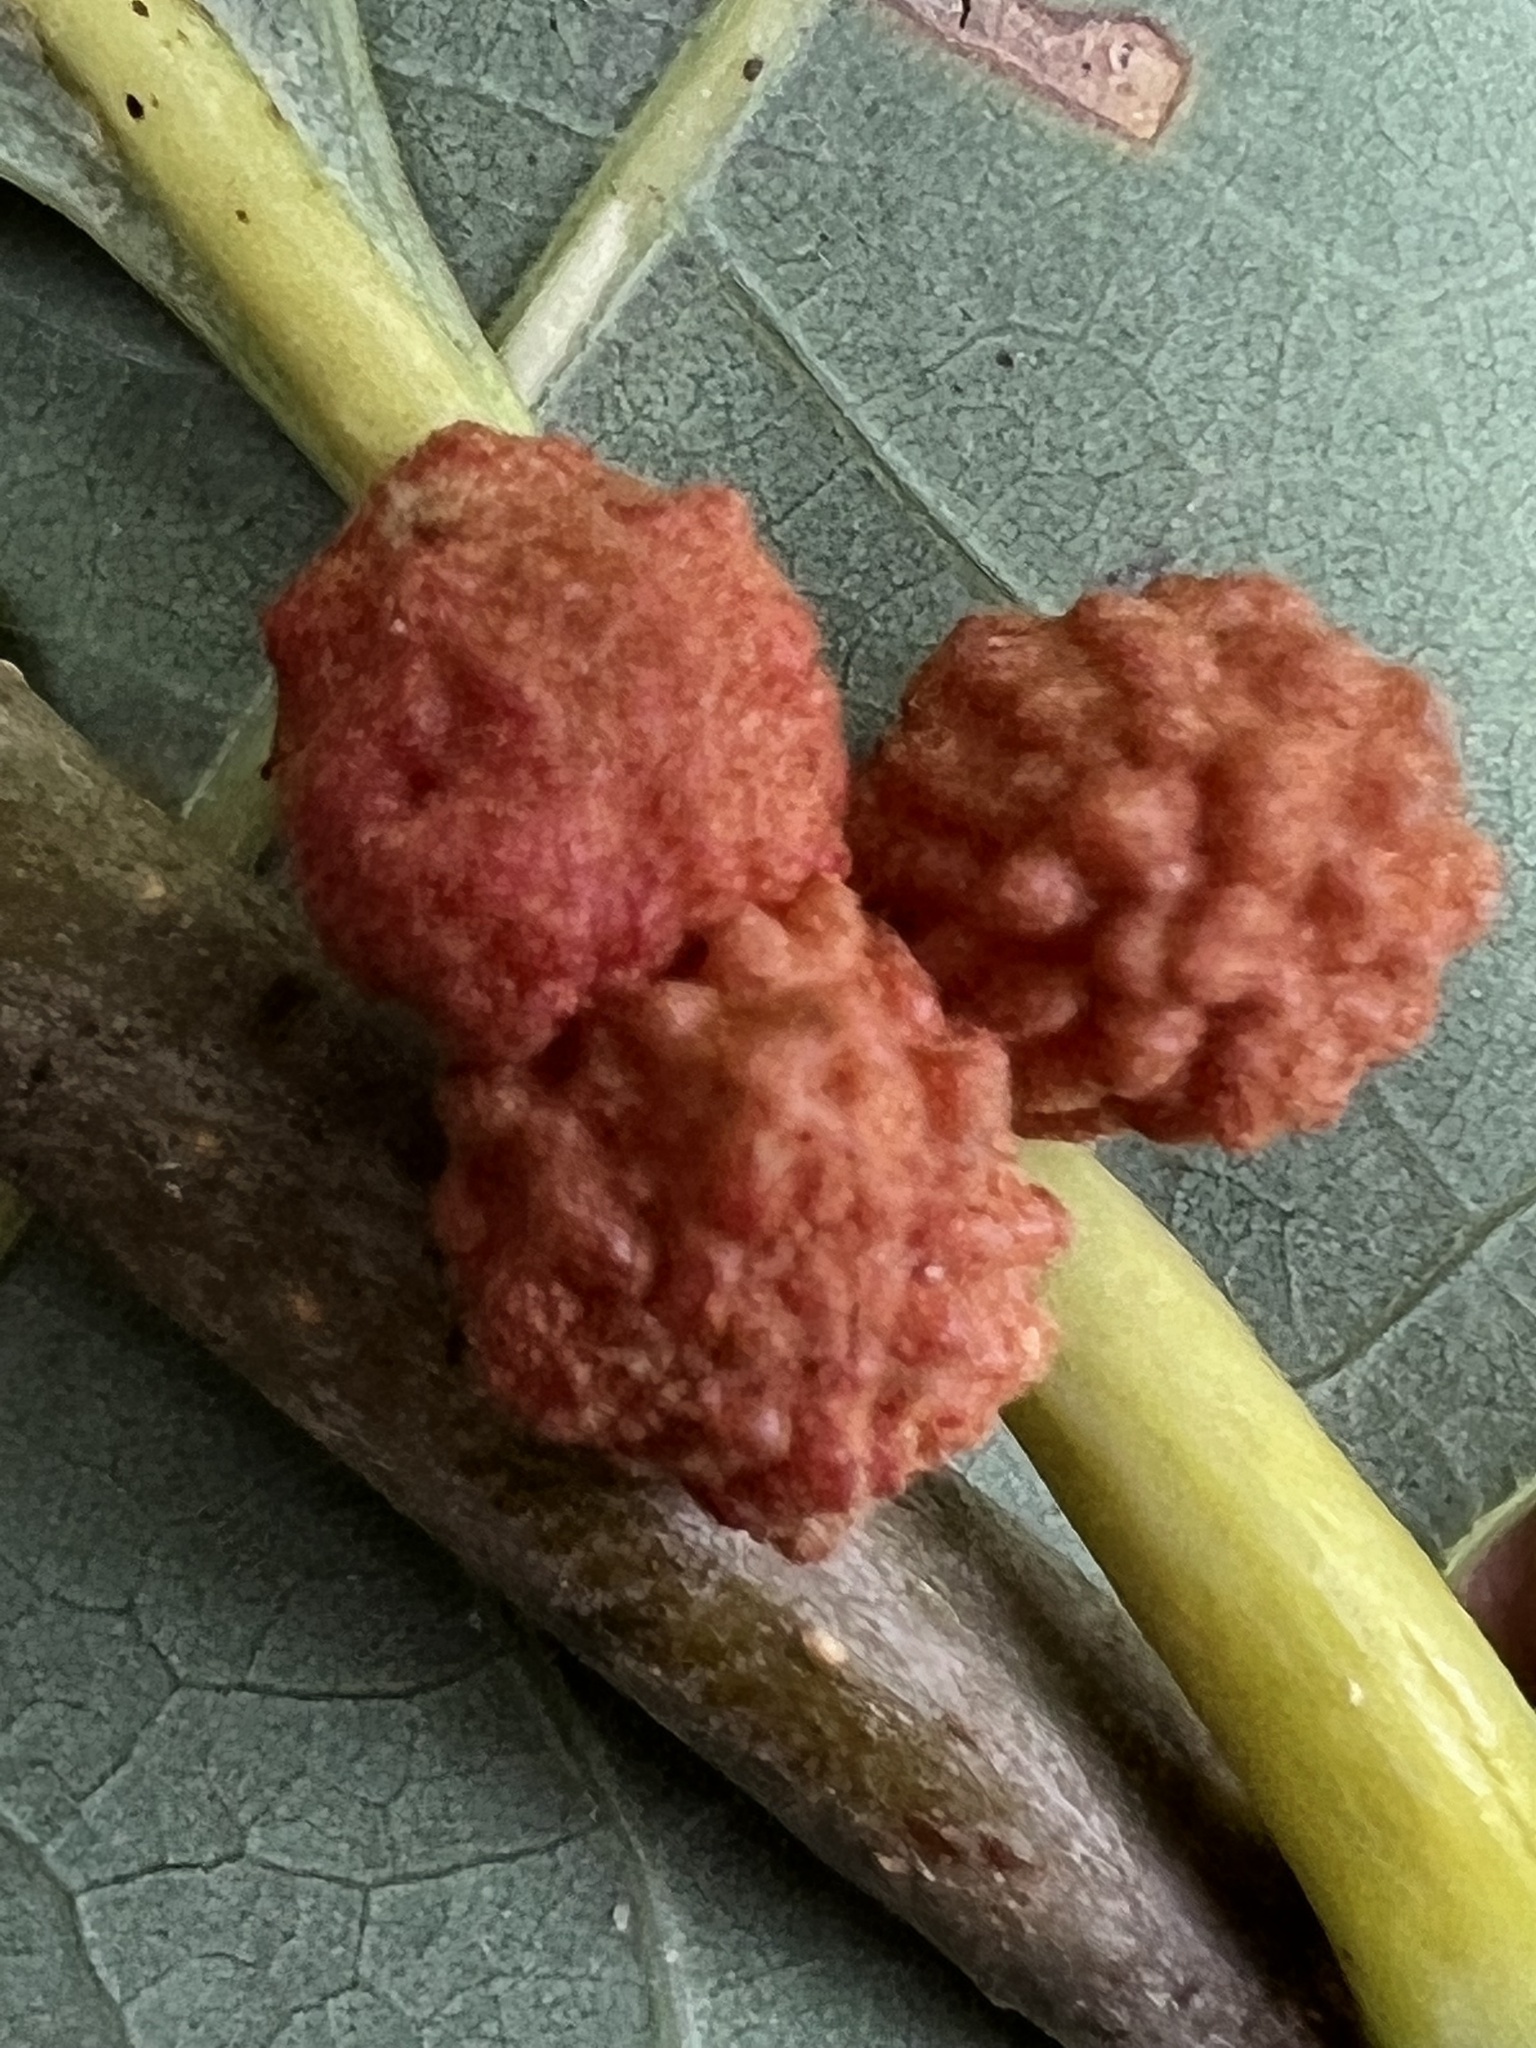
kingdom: Animalia
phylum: Arthropoda
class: Insecta
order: Hymenoptera
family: Cynipidae
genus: Andricus
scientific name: Andricus
